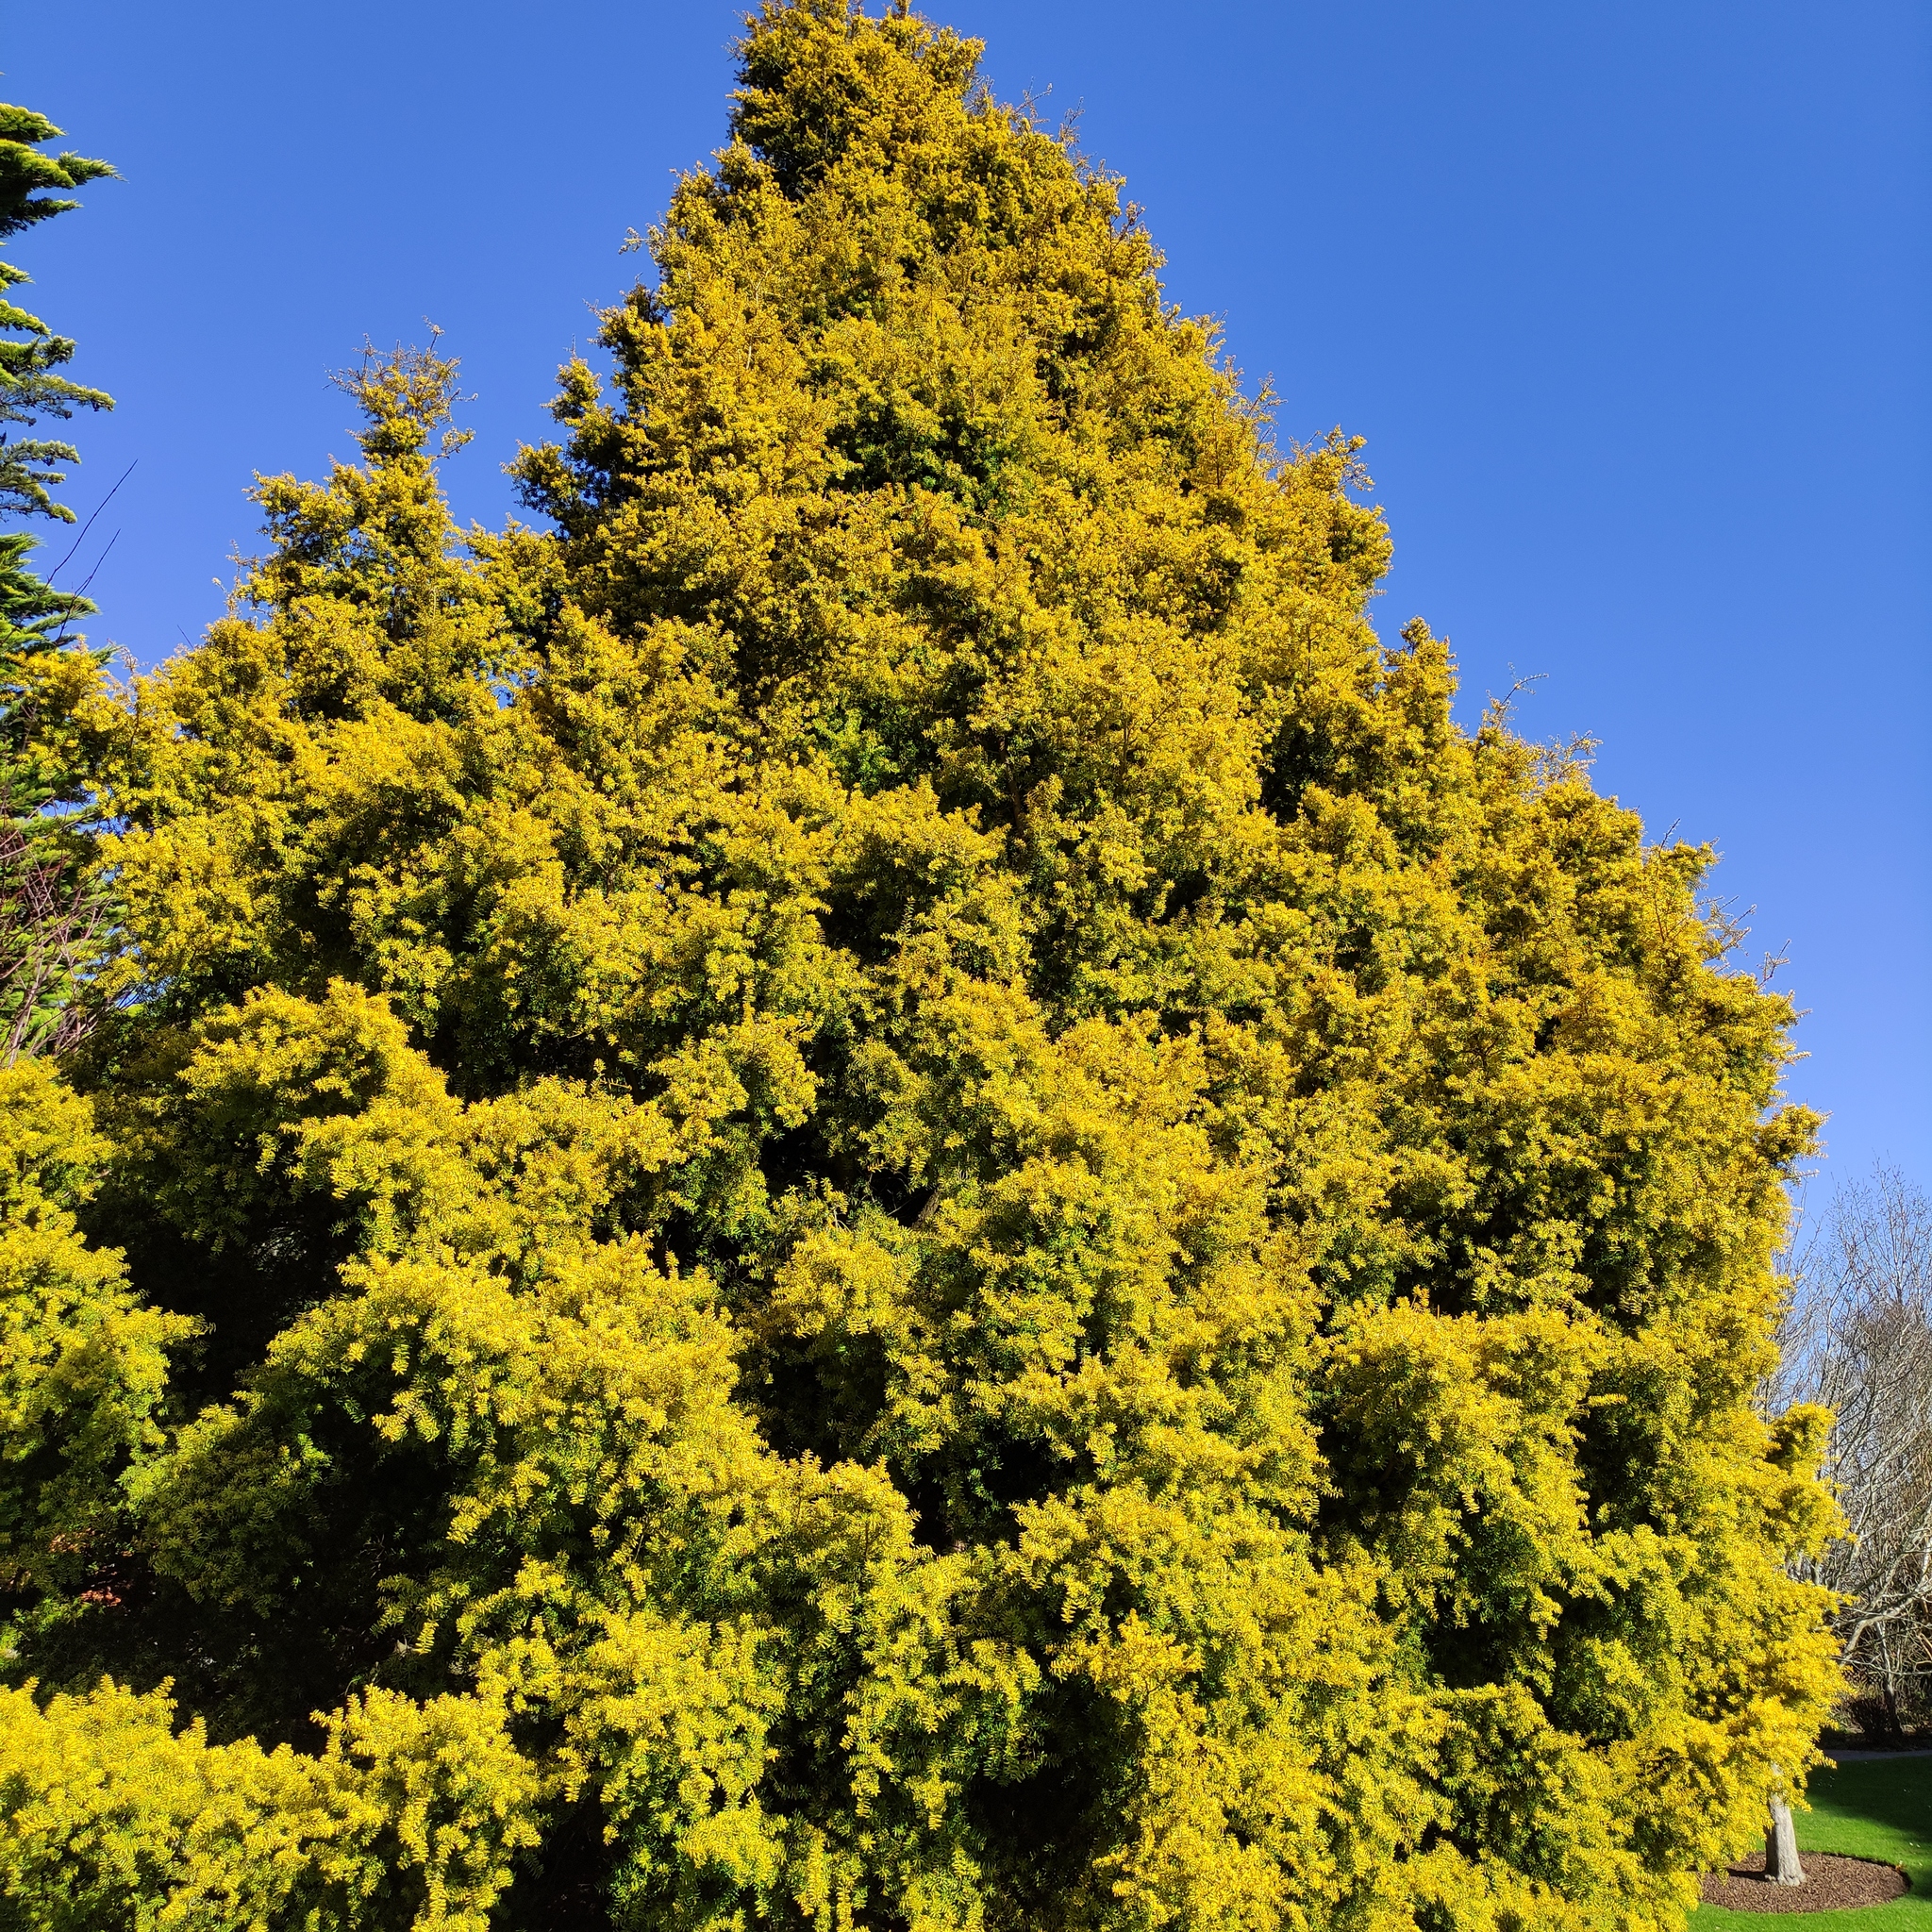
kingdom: Plantae
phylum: Tracheophyta
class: Pinopsida
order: Pinales
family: Podocarpaceae
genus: Podocarpus
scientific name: Podocarpus totara
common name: Totara
